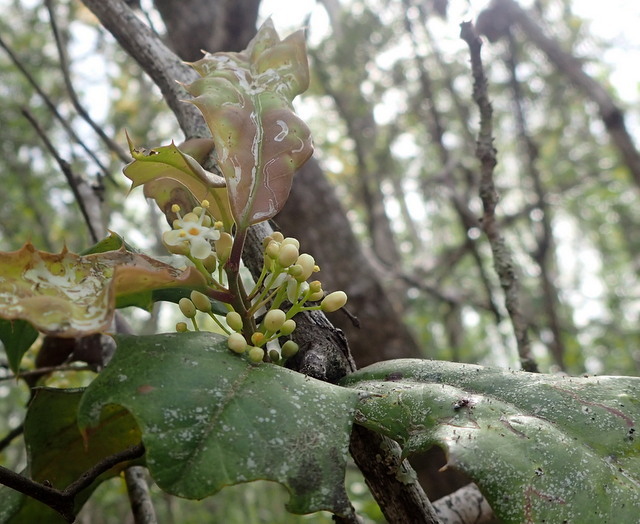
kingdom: Plantae
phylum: Tracheophyta
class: Magnoliopsida
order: Aquifoliales
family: Aquifoliaceae
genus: Ilex
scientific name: Ilex opaca
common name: American holly
